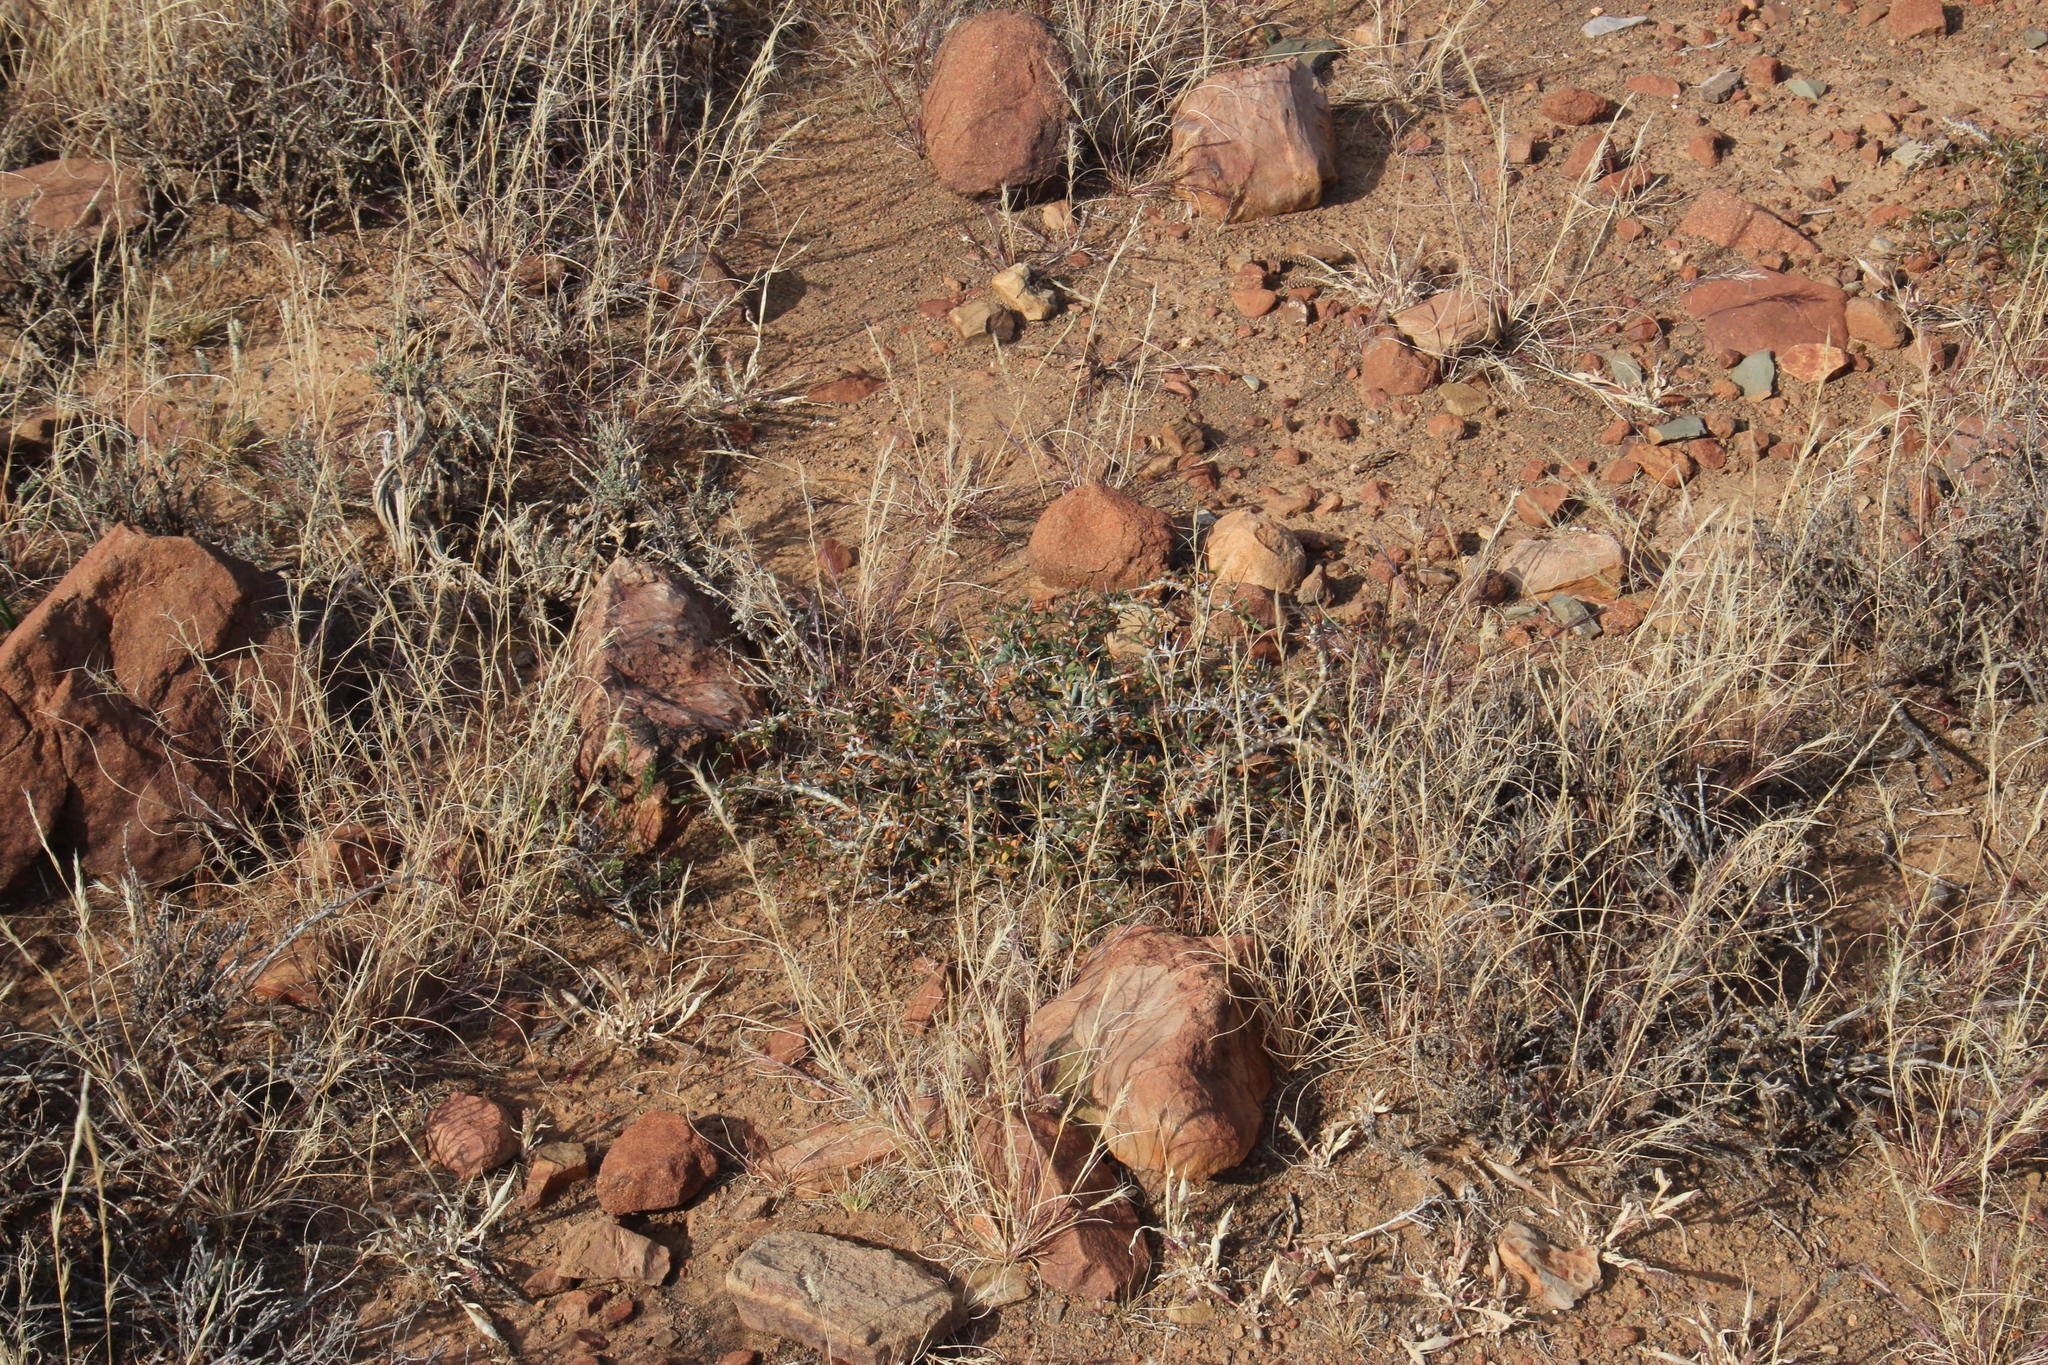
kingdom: Plantae
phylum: Tracheophyta
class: Magnoliopsida
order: Geraniales
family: Geraniaceae
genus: Monsonia
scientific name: Monsonia camdeboensis
